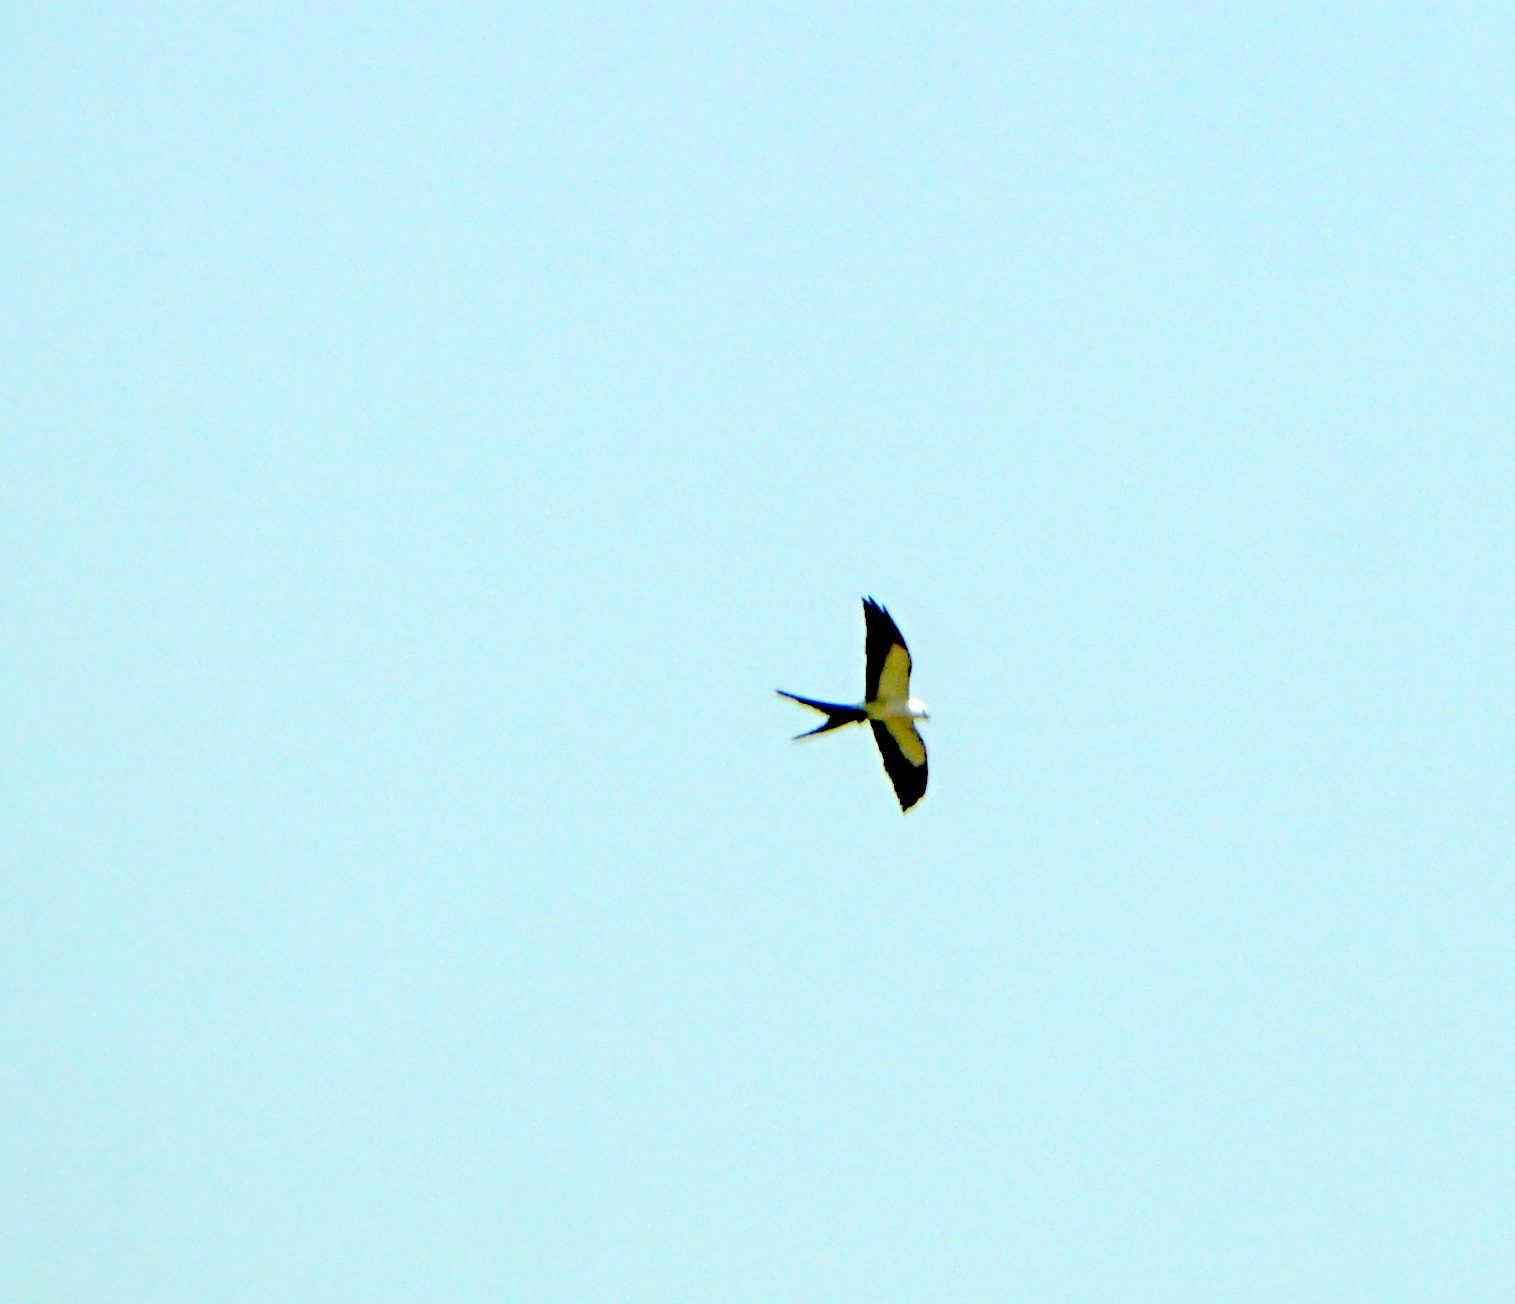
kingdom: Animalia
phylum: Chordata
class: Aves
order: Accipitriformes
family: Accipitridae
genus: Elanoides
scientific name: Elanoides forficatus
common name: Swallow-tailed kite
